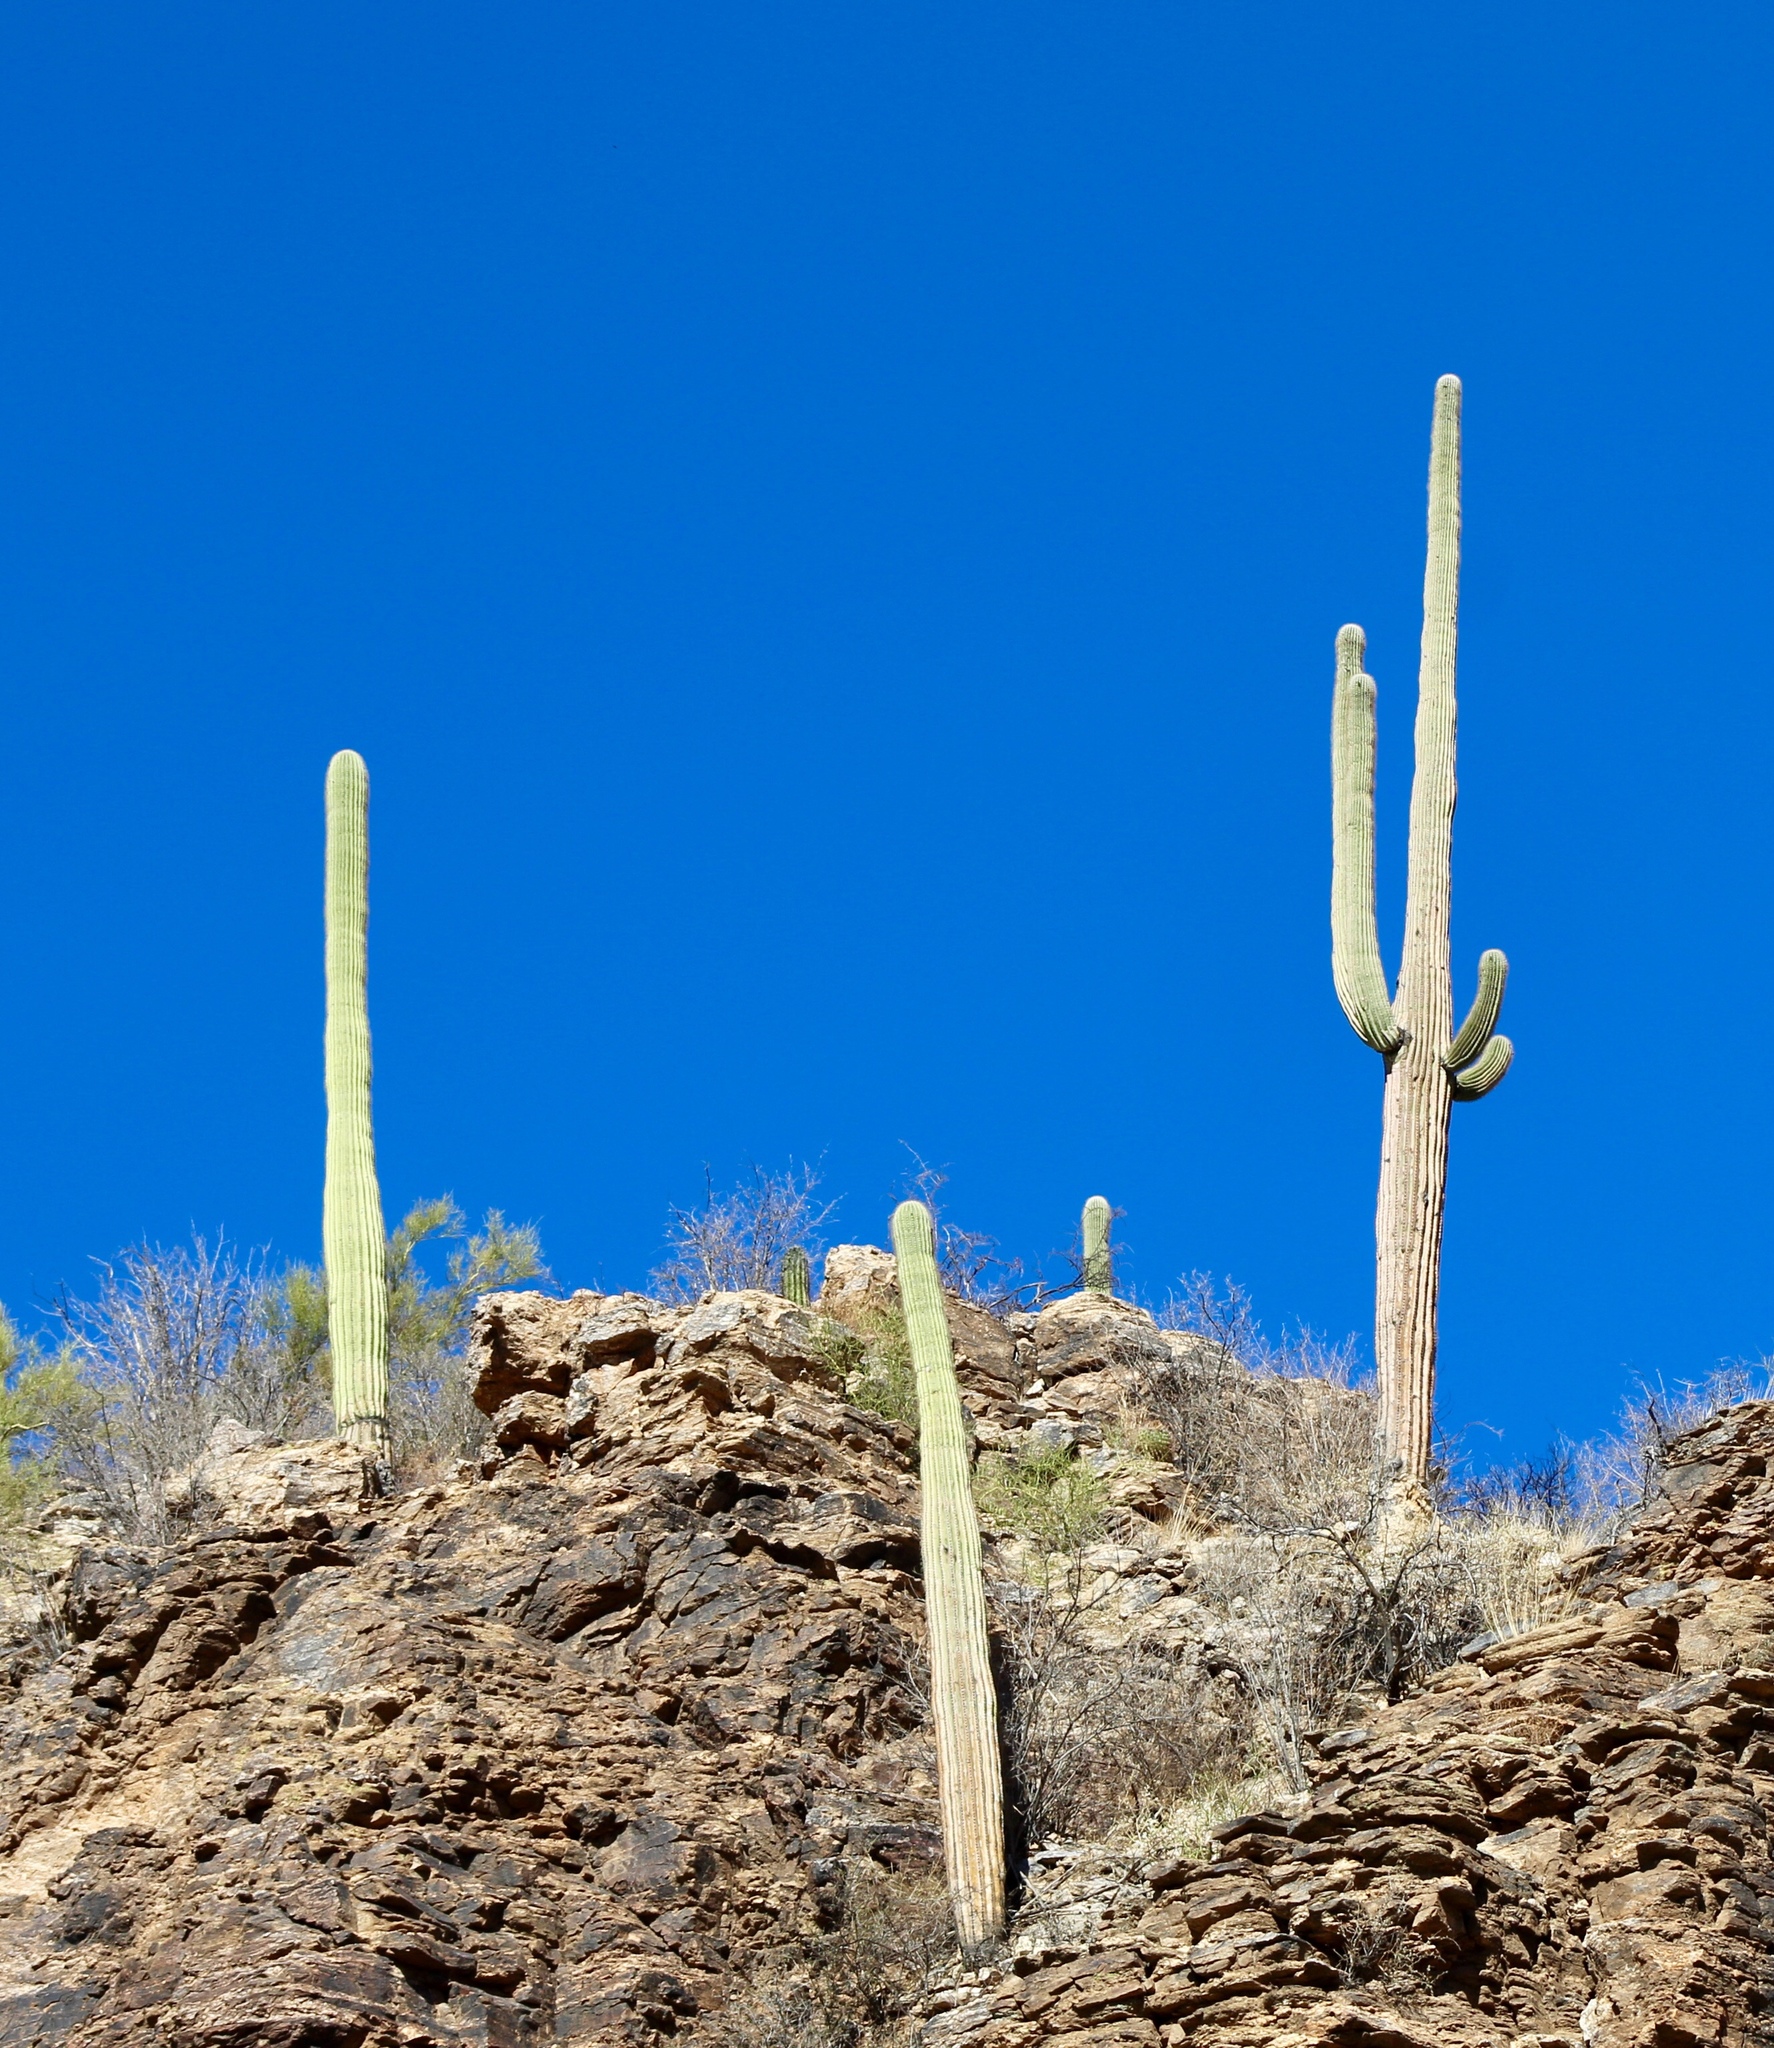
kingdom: Plantae
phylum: Tracheophyta
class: Magnoliopsida
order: Caryophyllales
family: Cactaceae
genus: Carnegiea
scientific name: Carnegiea gigantea
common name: Saguaro
